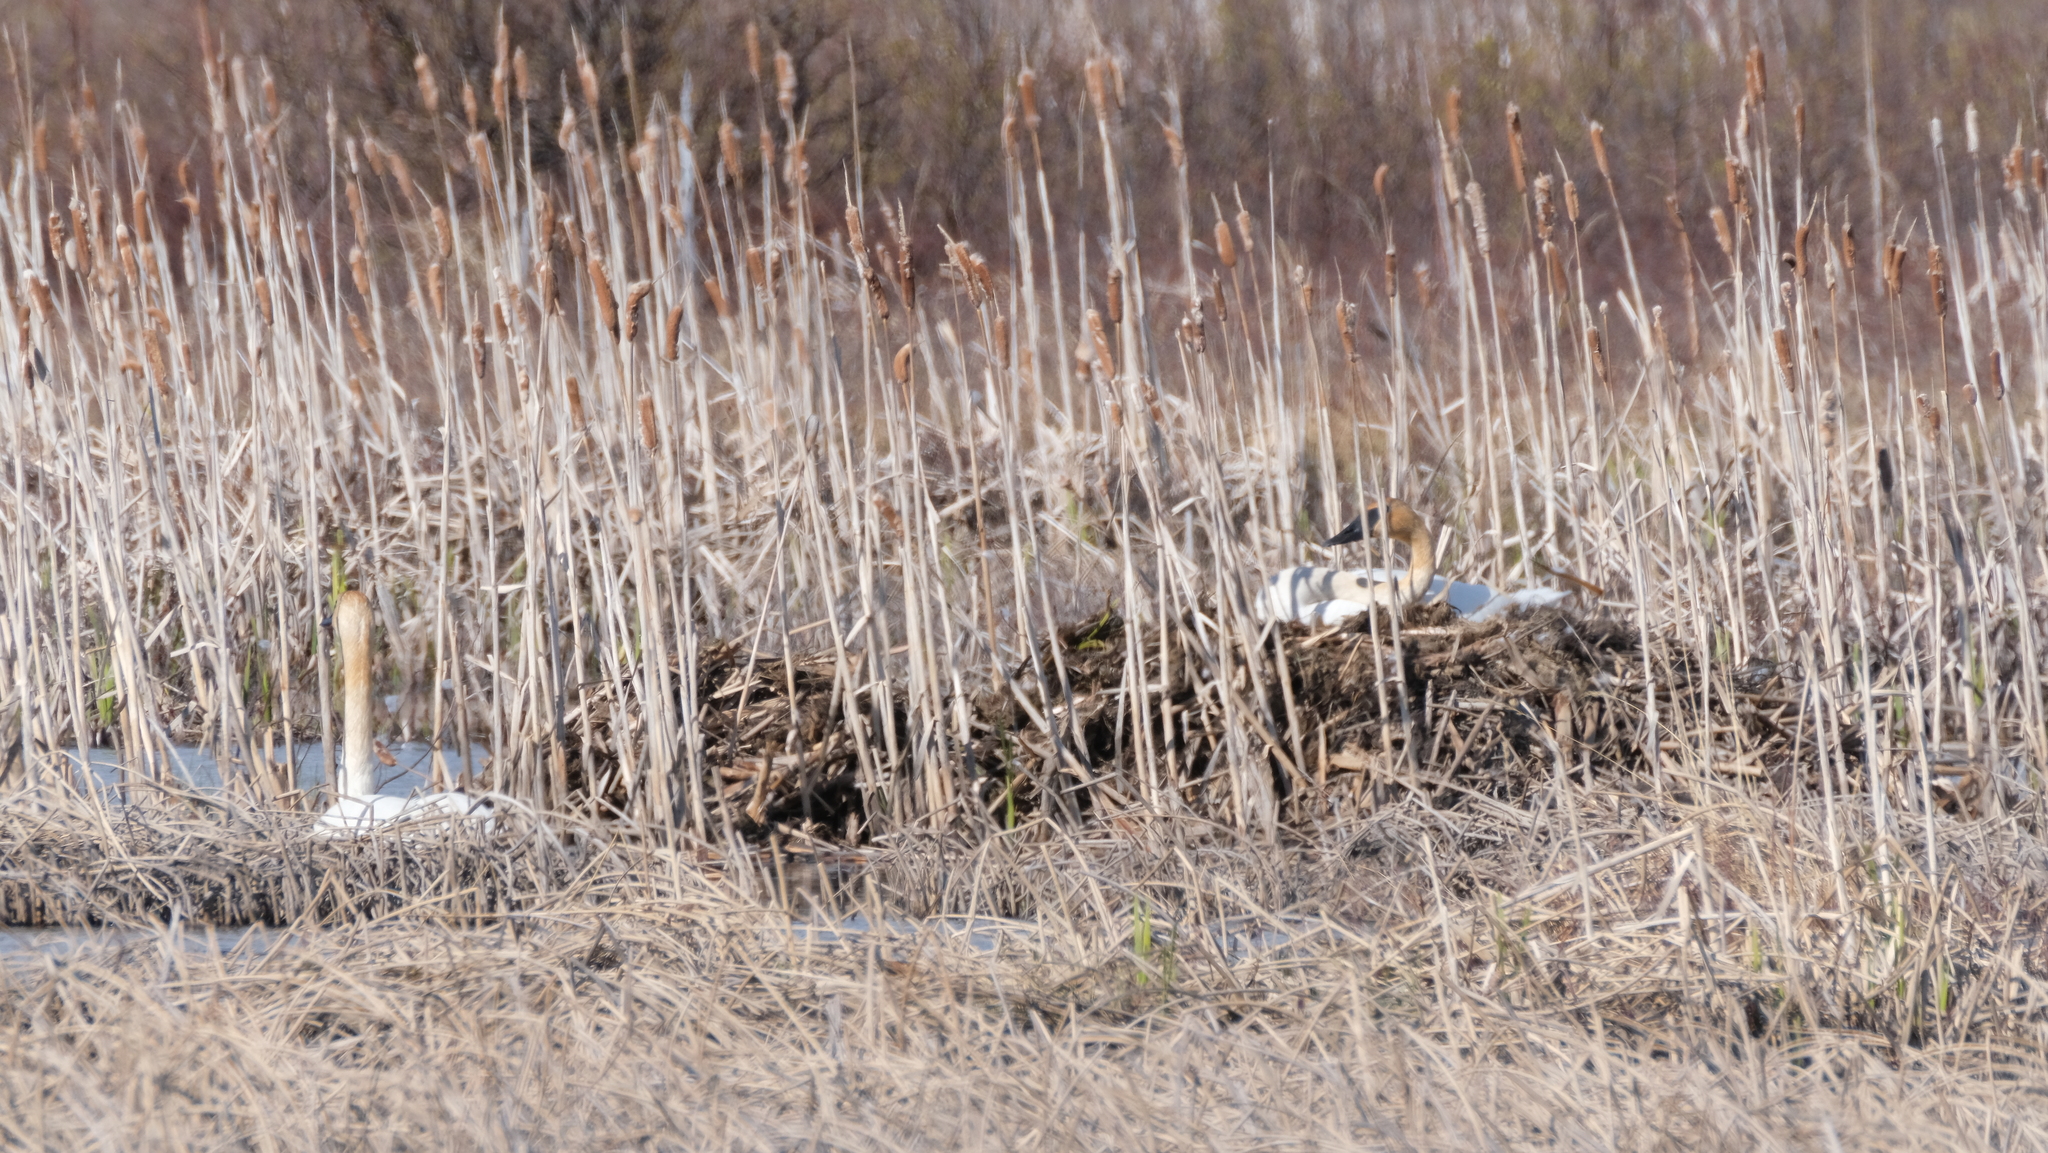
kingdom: Animalia
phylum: Chordata
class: Aves
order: Anseriformes
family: Anatidae
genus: Cygnus
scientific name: Cygnus buccinator
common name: Trumpeter swan
